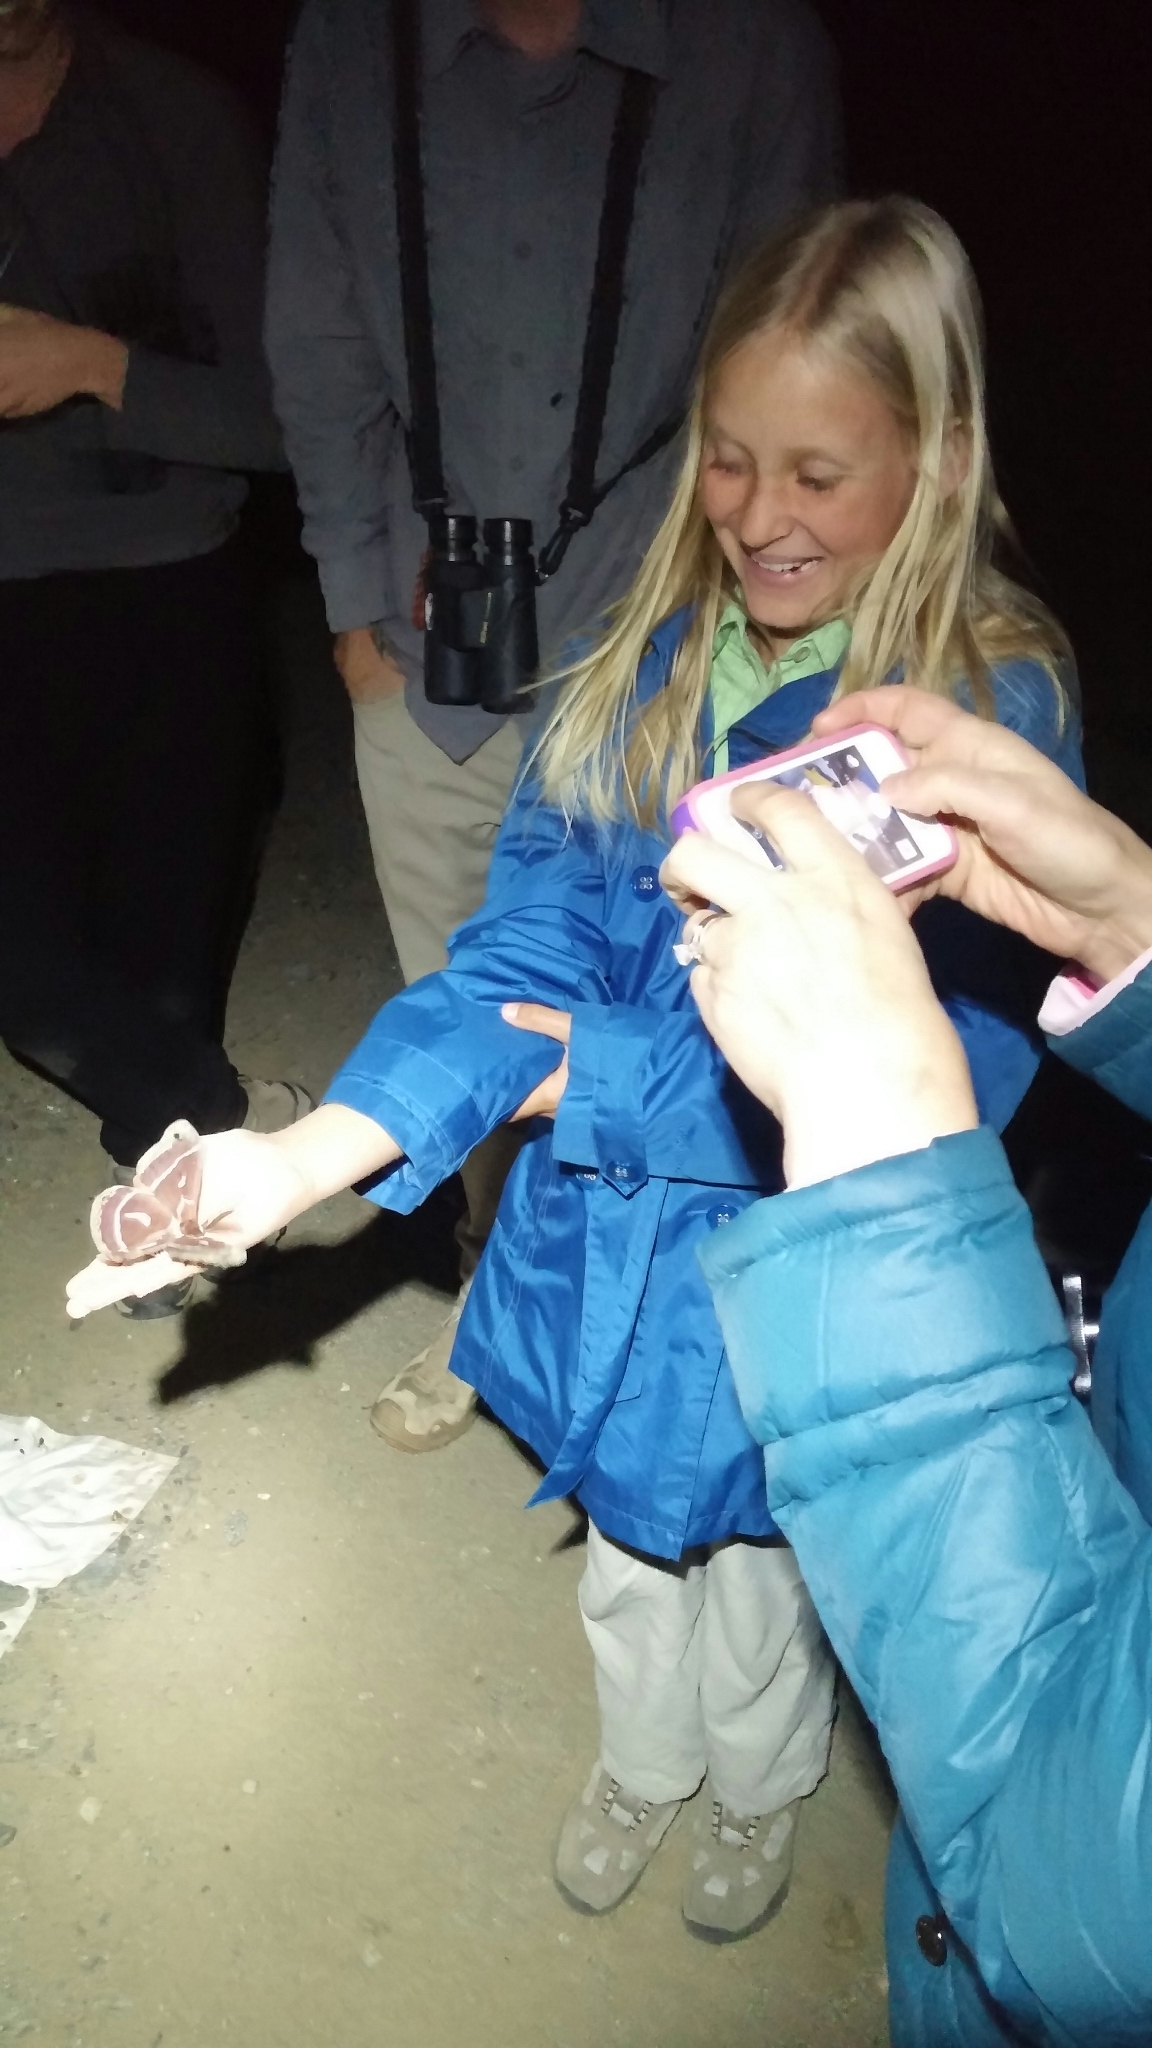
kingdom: Animalia
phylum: Arthropoda
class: Insecta
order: Lepidoptera
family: Saturniidae
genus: Hyalophora
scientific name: Hyalophora euryalus
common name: Ceanothus silkmoth
